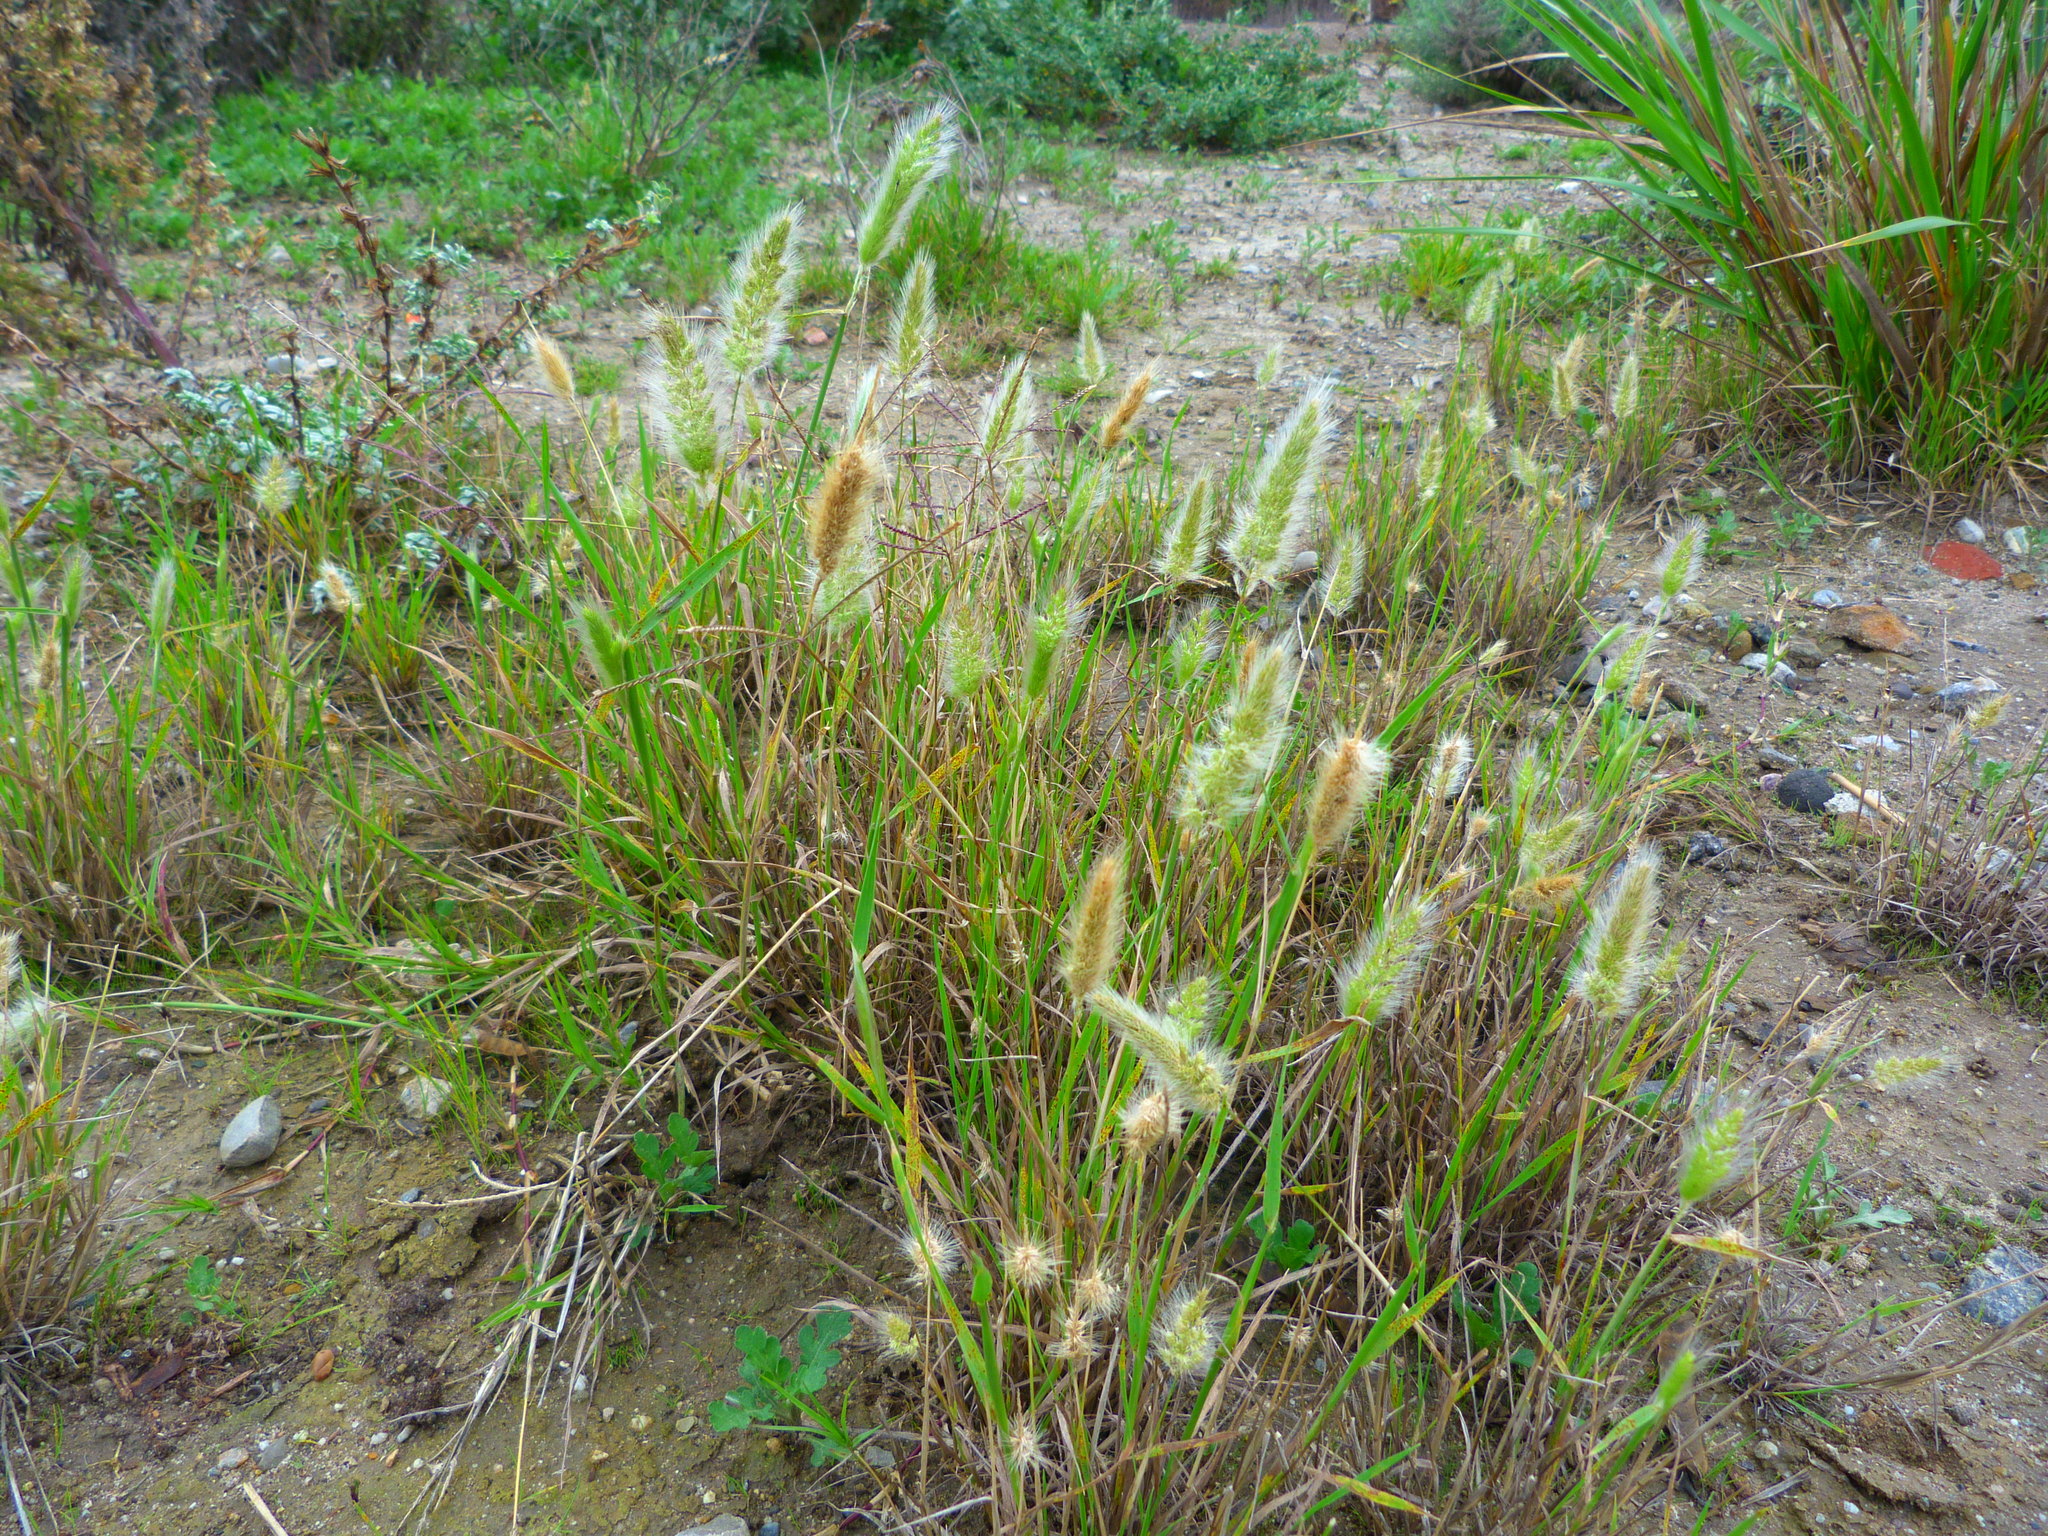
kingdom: Plantae
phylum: Tracheophyta
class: Liliopsida
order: Poales
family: Poaceae
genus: Polypogon
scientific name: Polypogon monspeliensis
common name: Annual rabbitsfoot grass
